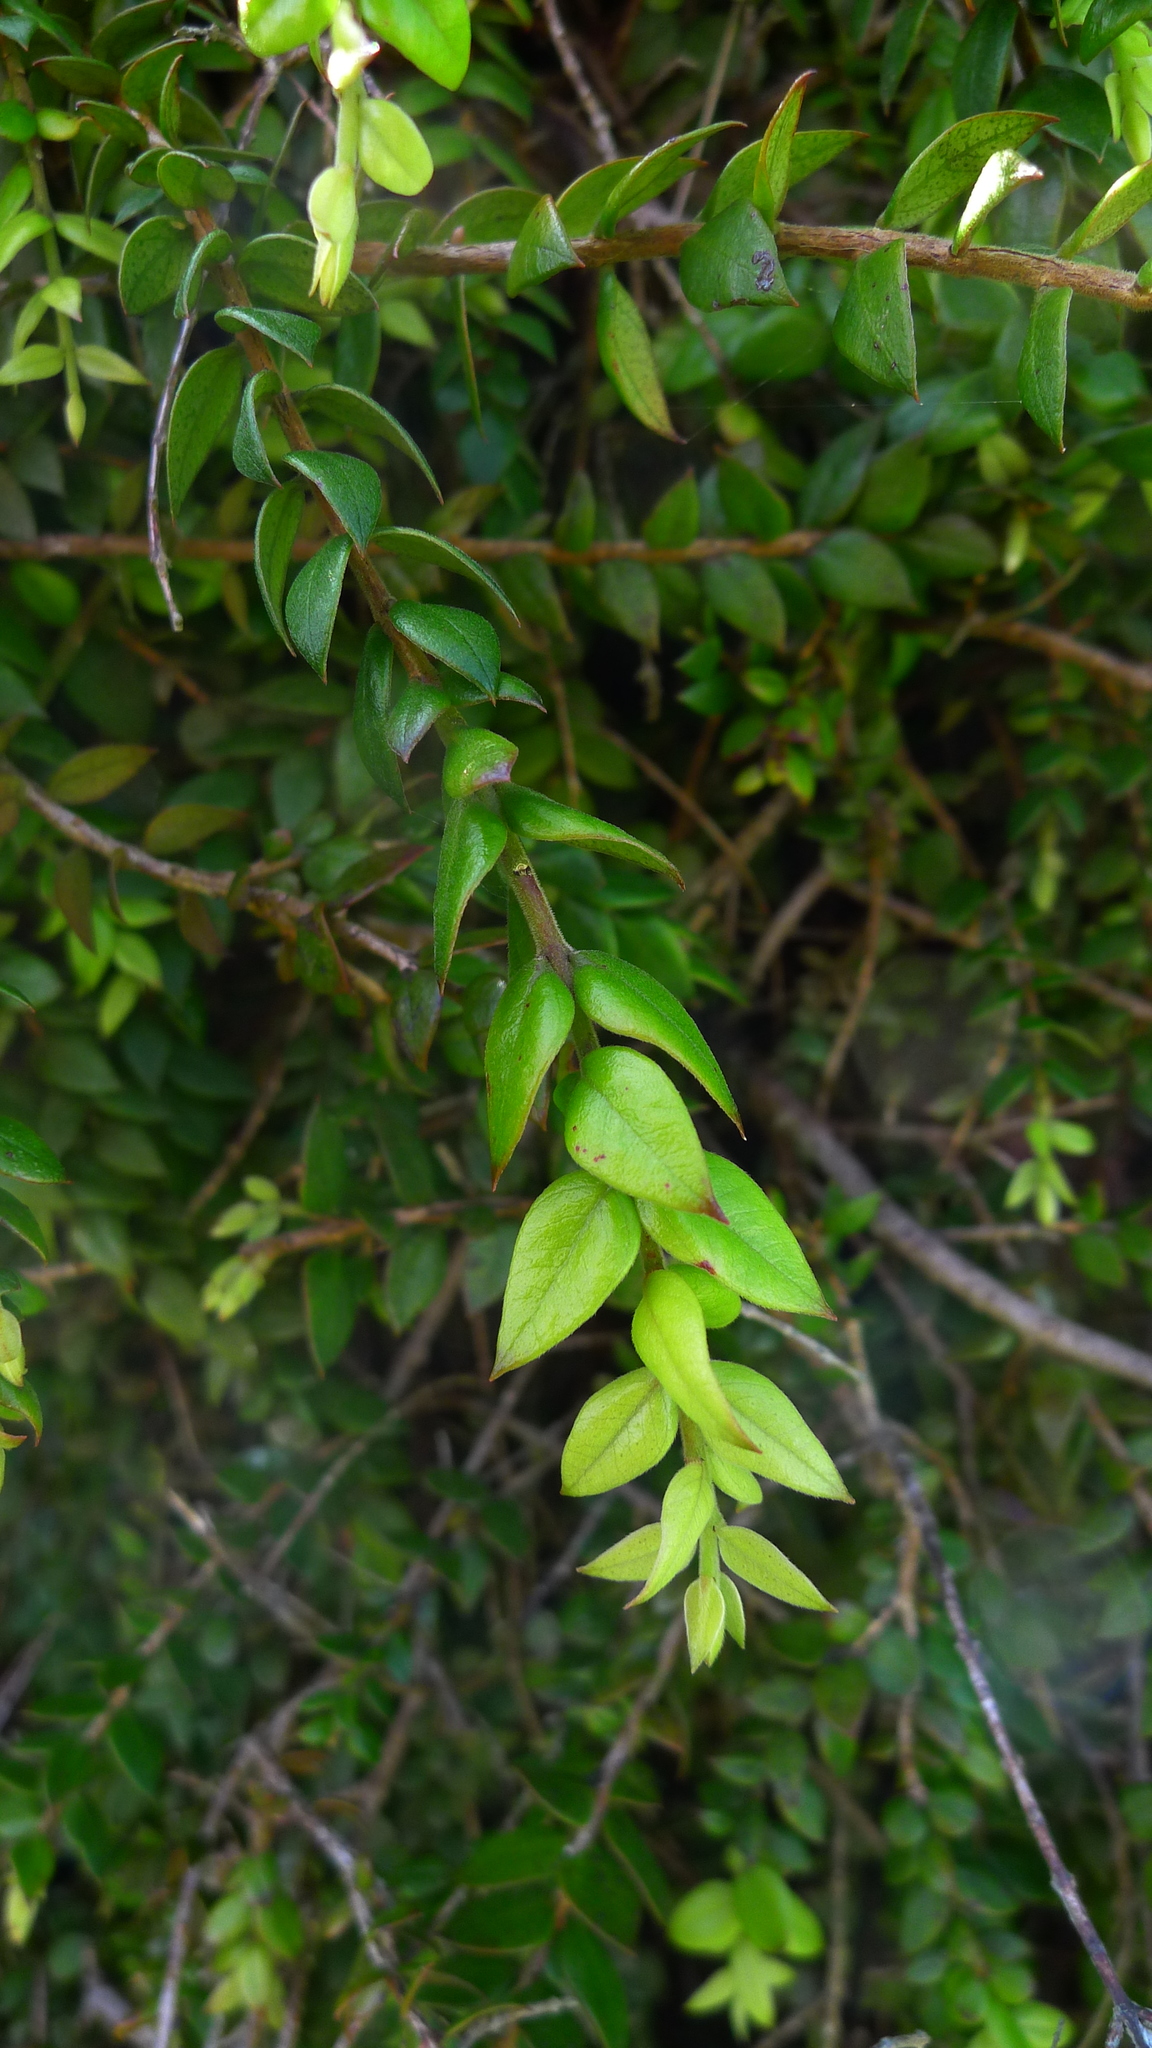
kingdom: Plantae
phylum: Tracheophyta
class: Magnoliopsida
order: Myrtales
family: Myrtaceae
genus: Metrosideros
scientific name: Metrosideros colensoi
